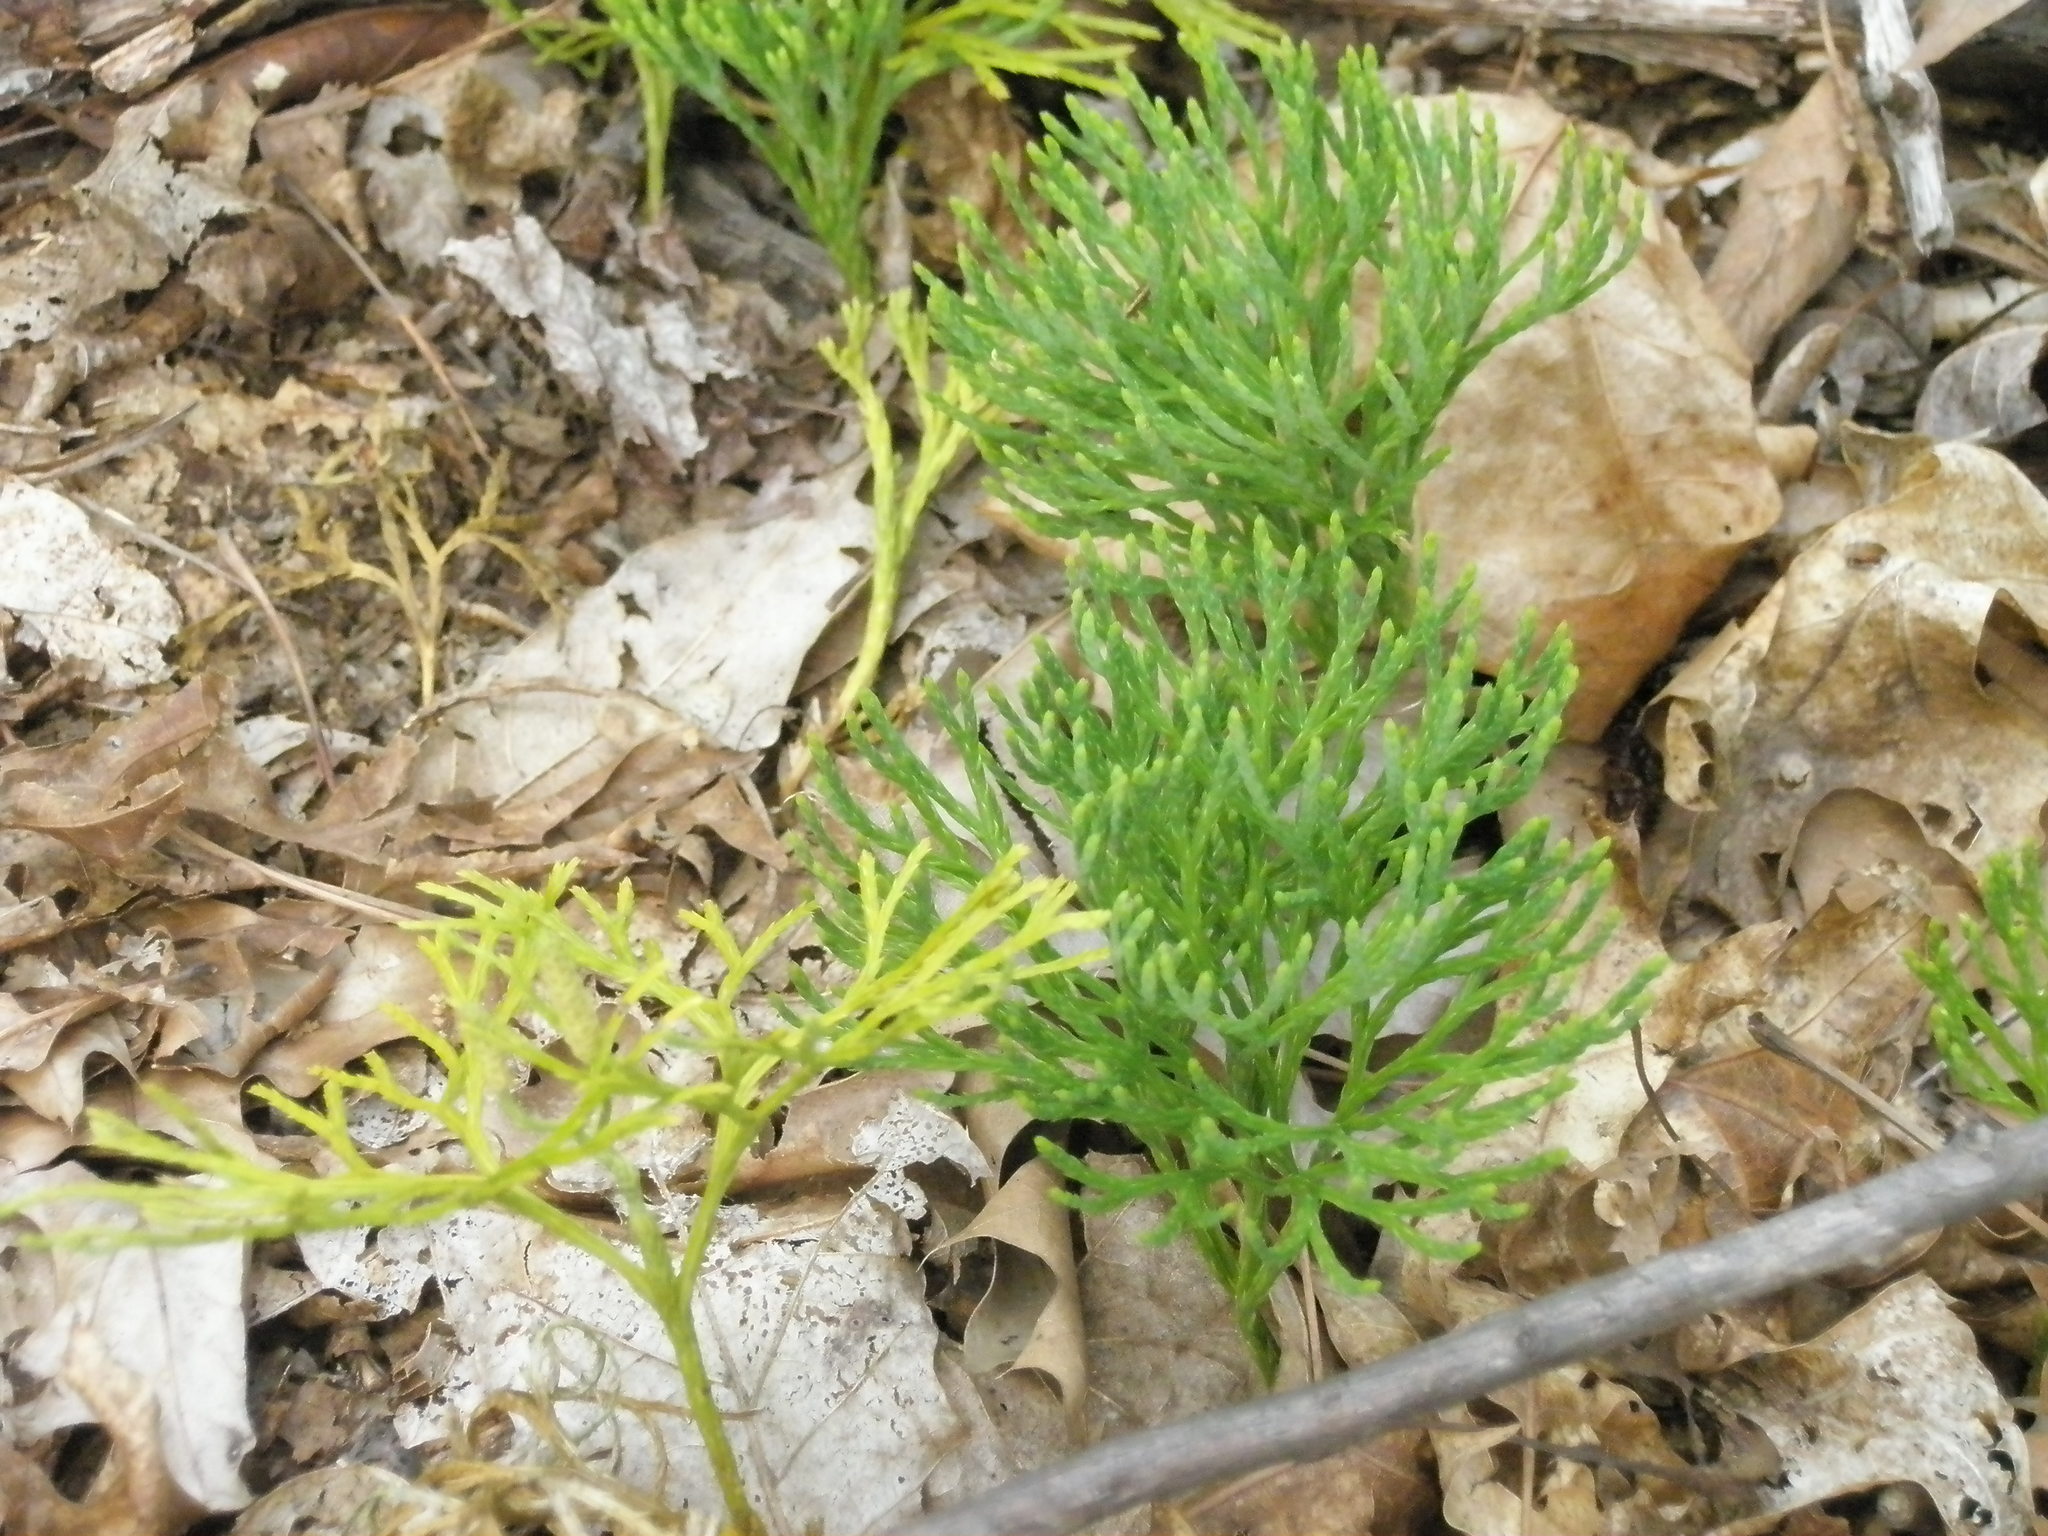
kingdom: Plantae
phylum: Tracheophyta
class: Lycopodiopsida
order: Lycopodiales
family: Lycopodiaceae
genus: Diphasiastrum
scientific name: Diphasiastrum tristachyum
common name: Blue ground-cedar
